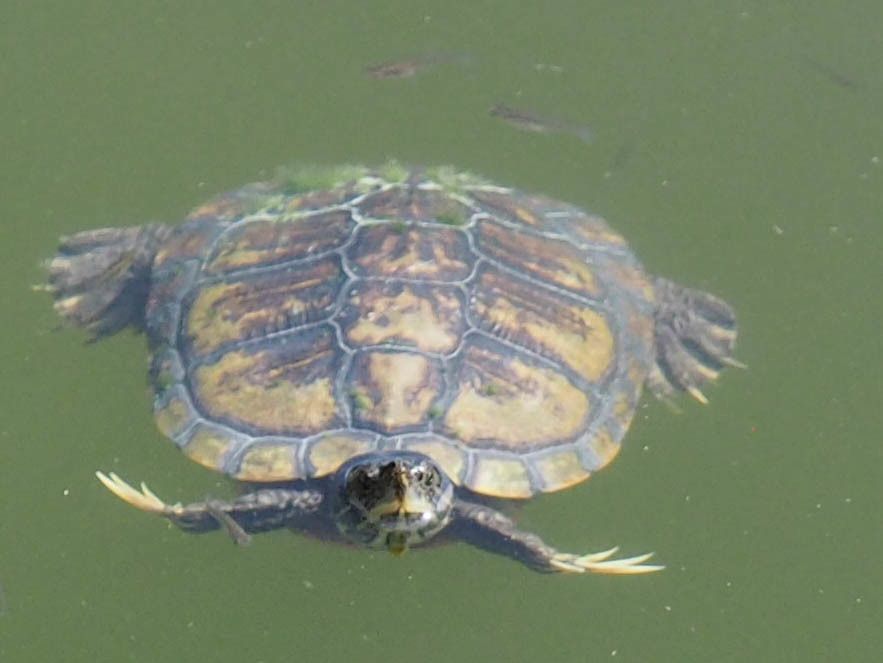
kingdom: Animalia
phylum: Chordata
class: Testudines
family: Emydidae
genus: Trachemys
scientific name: Trachemys scripta
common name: Slider
